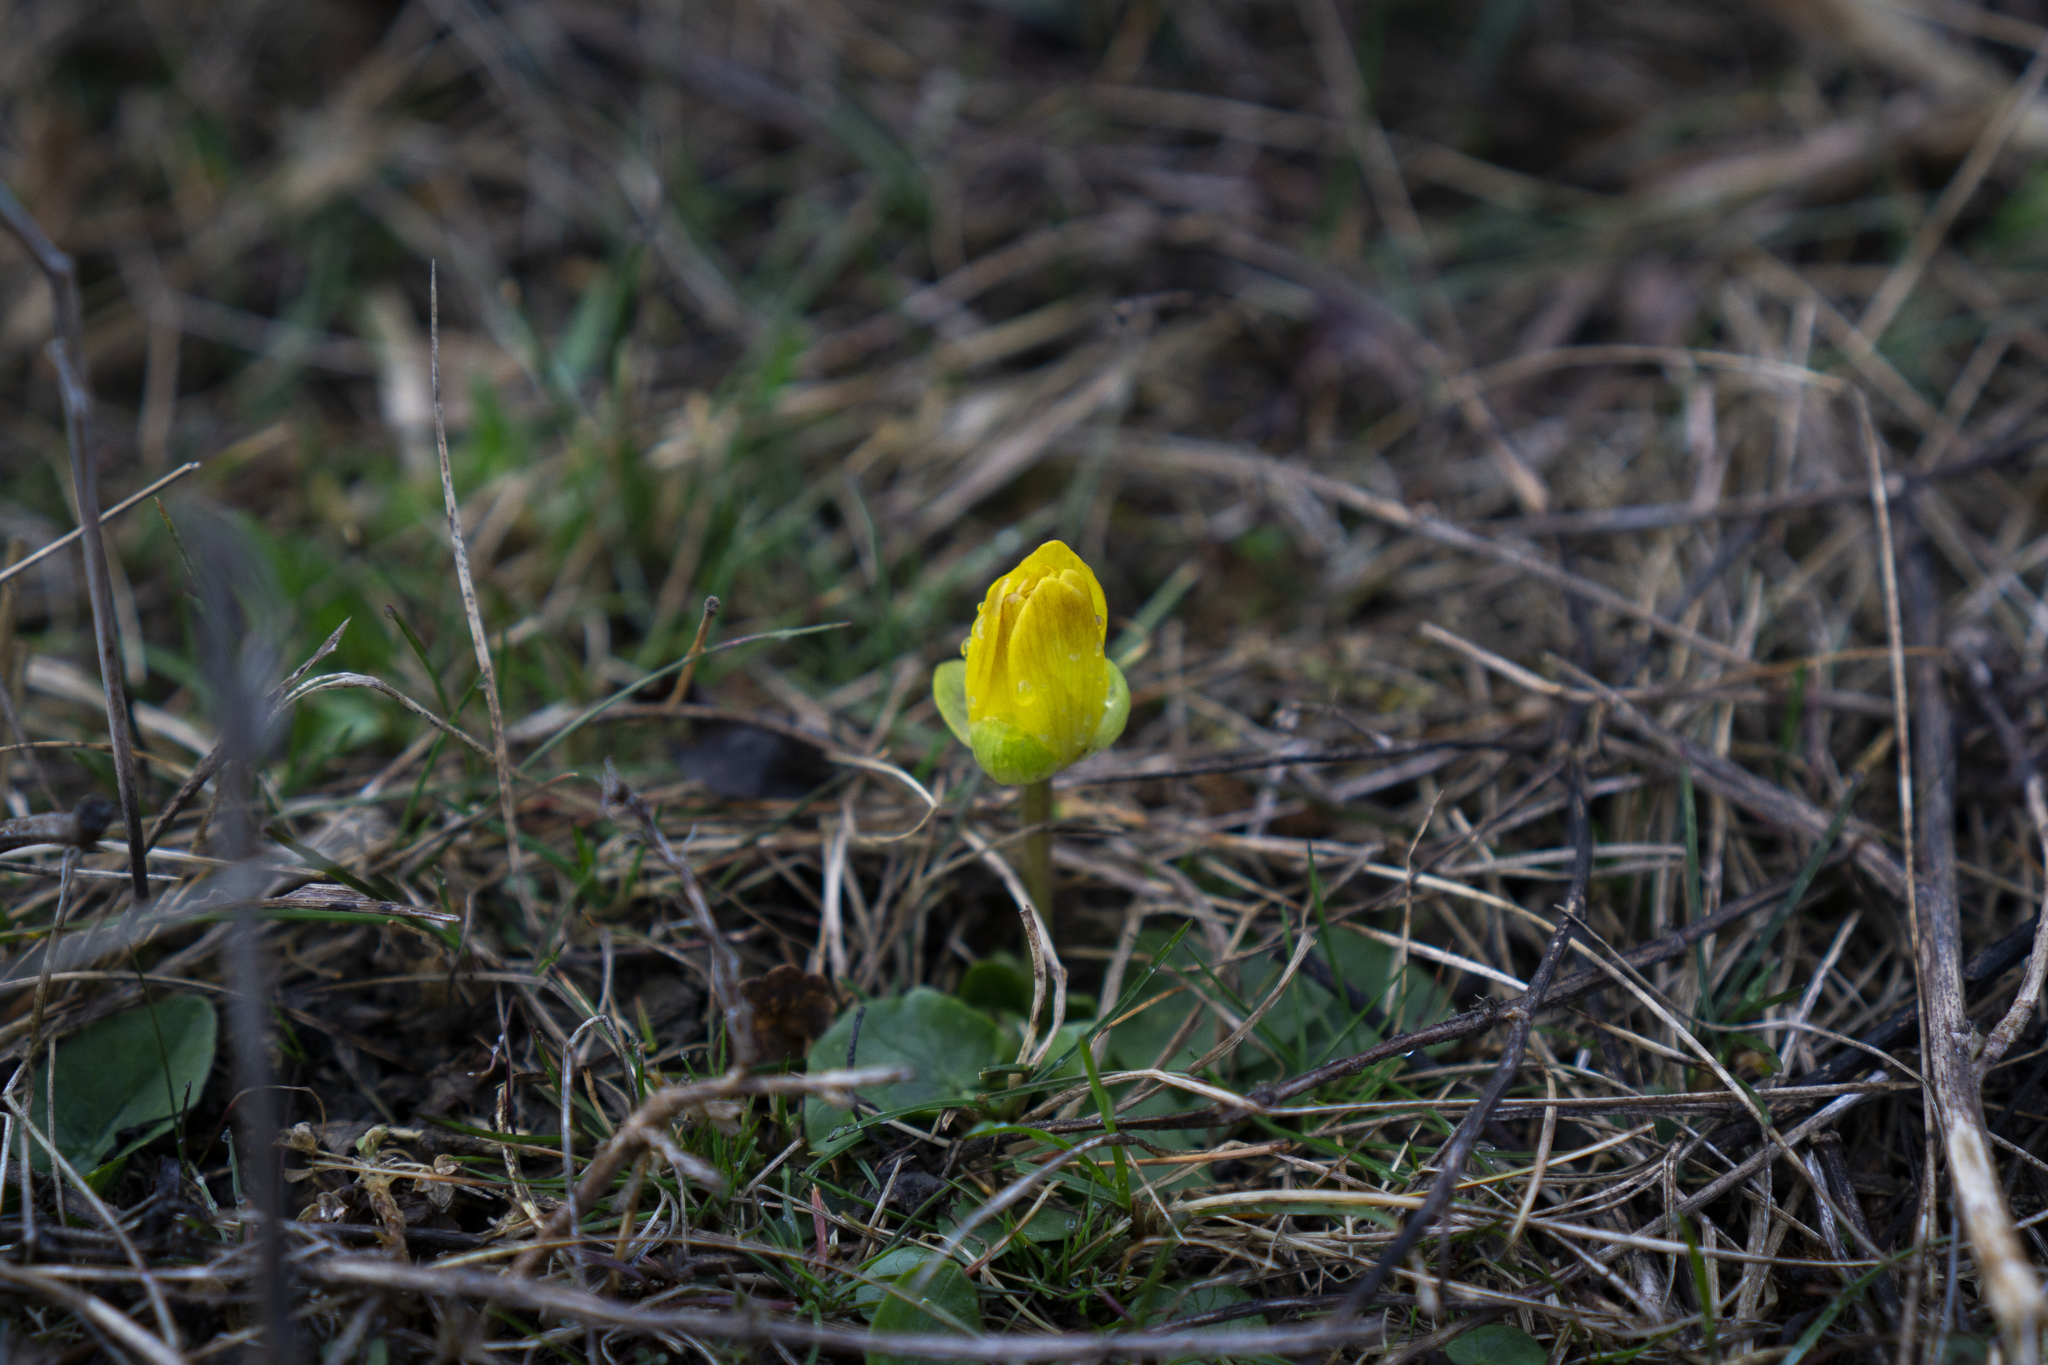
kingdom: Plantae
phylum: Tracheophyta
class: Magnoliopsida
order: Ranunculales
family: Ranunculaceae
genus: Ficaria
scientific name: Ficaria verna
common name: Lesser celandine
